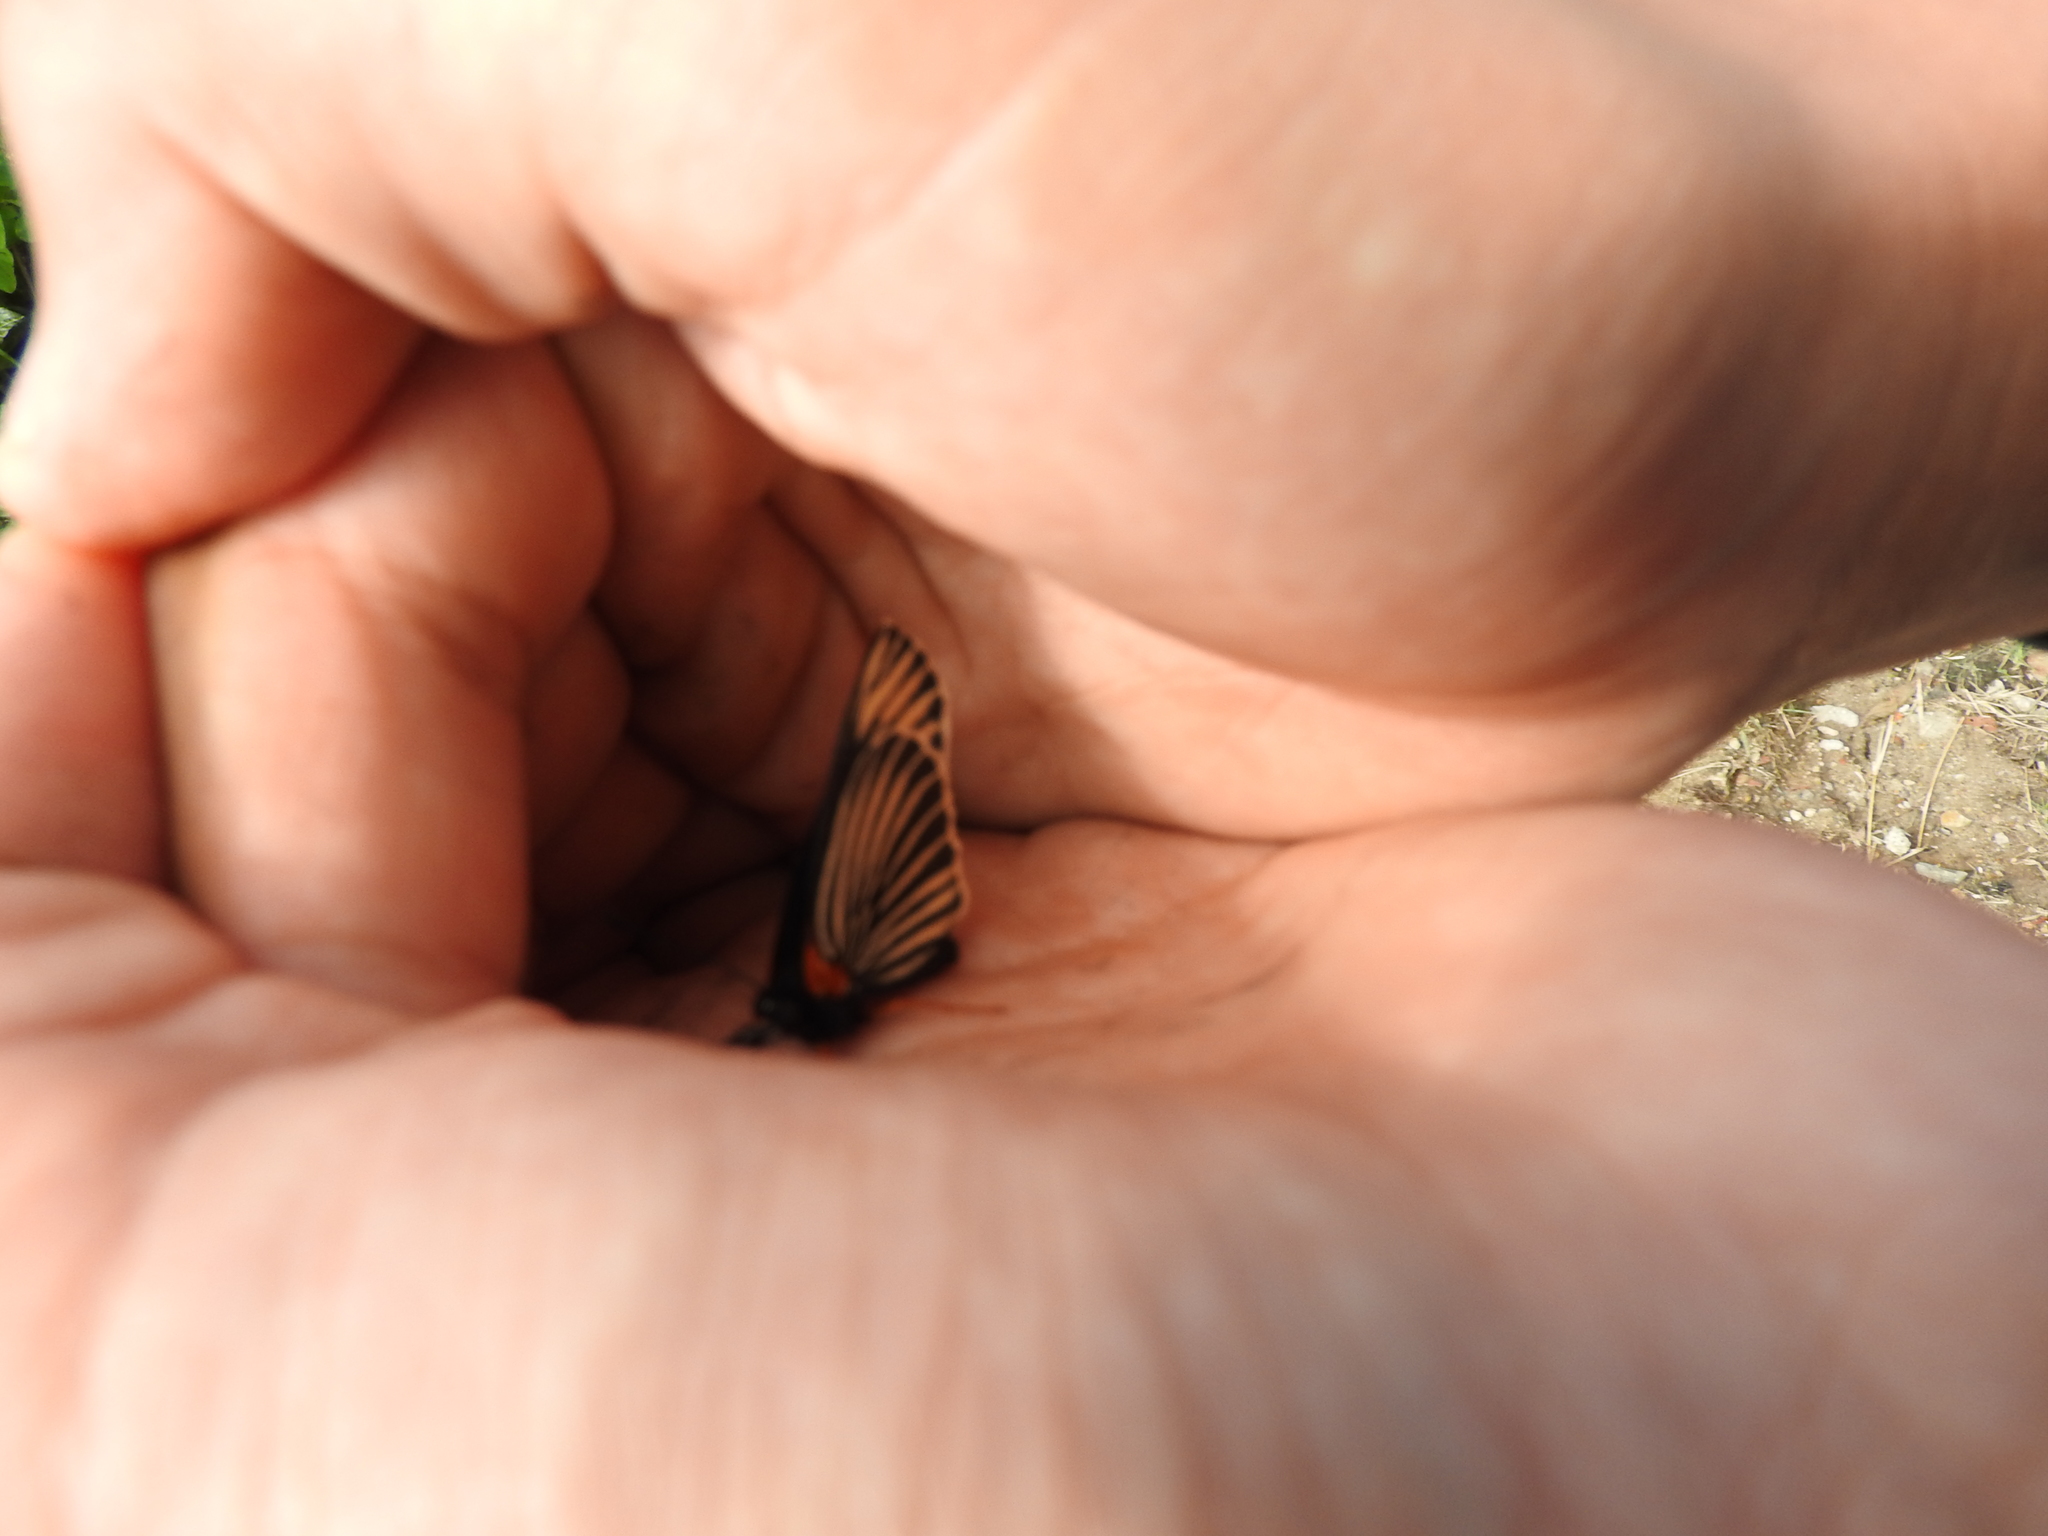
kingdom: Animalia
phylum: Arthropoda
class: Insecta
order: Lepidoptera
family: Nymphalidae
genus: Chlosyne
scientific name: Chlosyne ehrenbergii
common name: White-rayed patch
